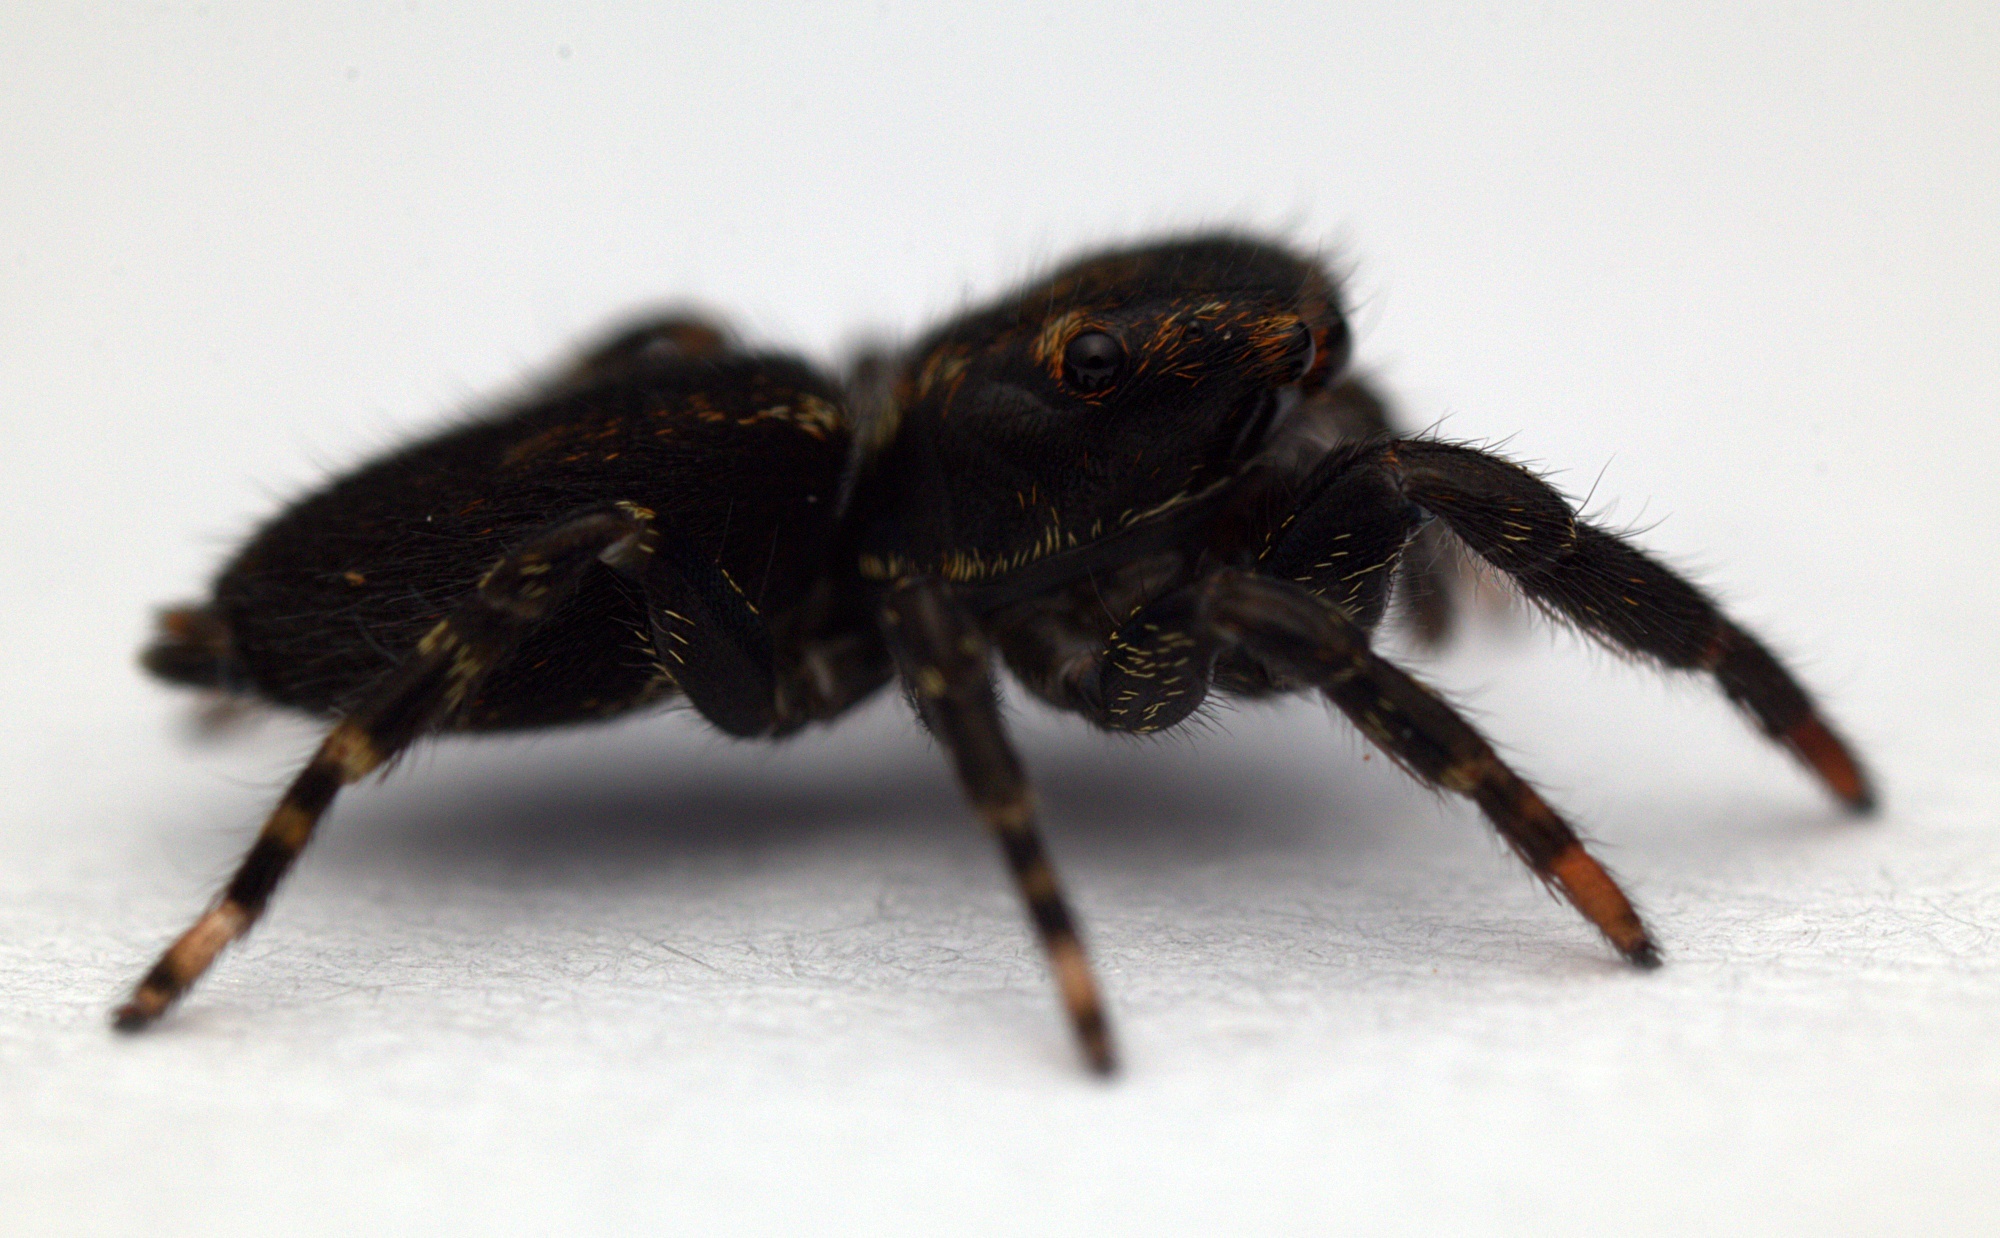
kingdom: Animalia
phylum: Arthropoda
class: Arachnida
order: Araneae
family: Salticidae
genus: Trite
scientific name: Trite auricoma
